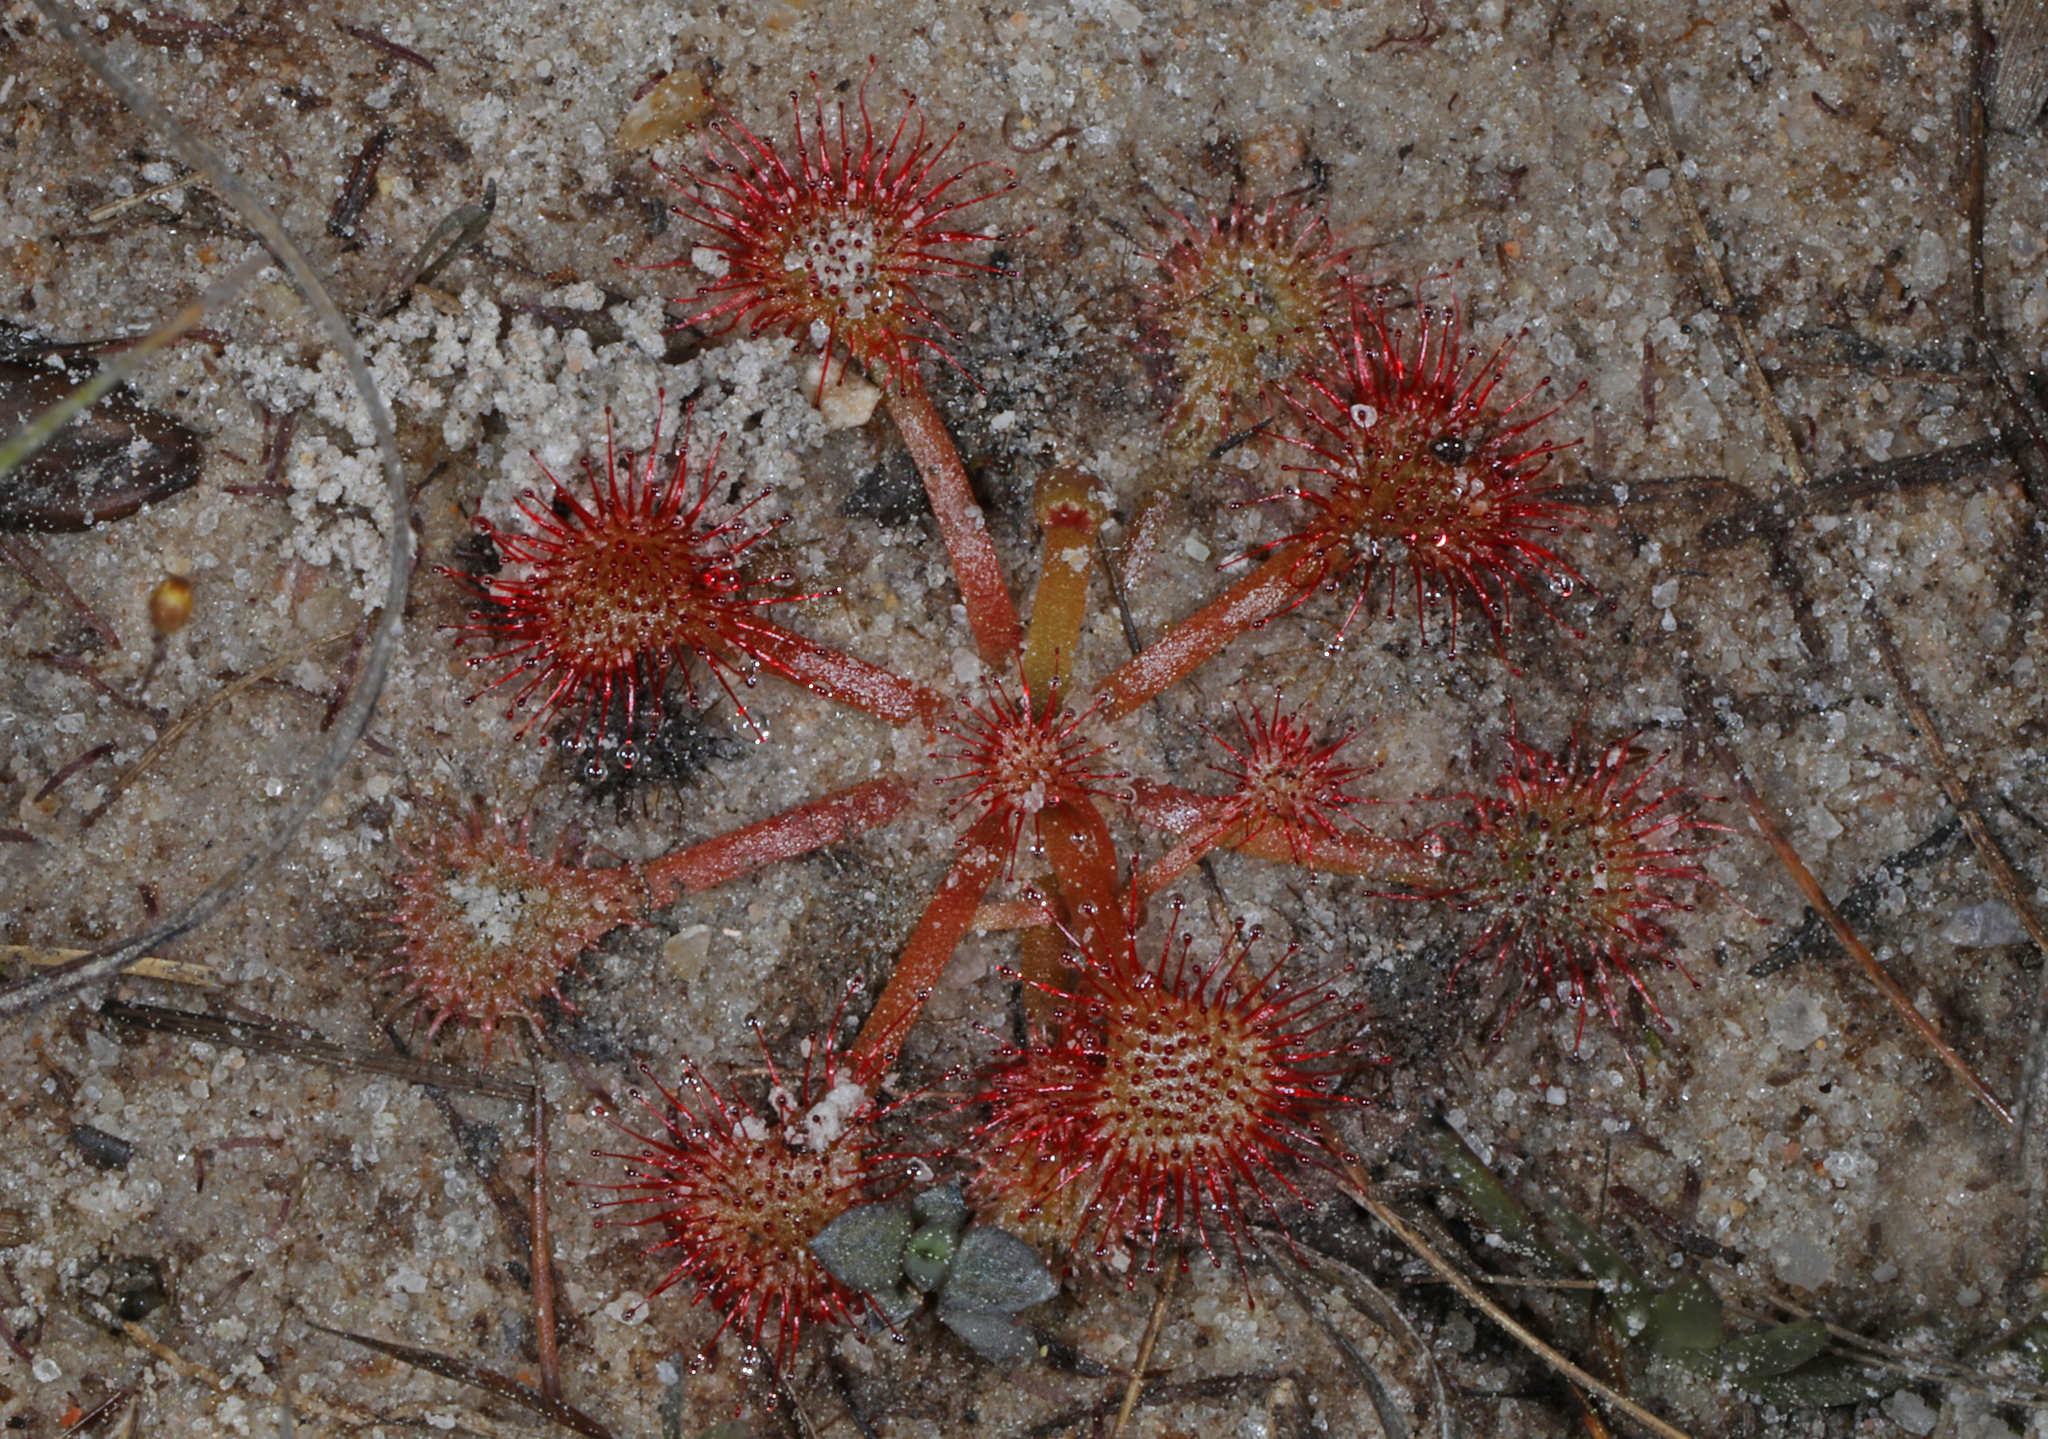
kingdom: Plantae
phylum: Tracheophyta
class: Magnoliopsida
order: Caryophyllales
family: Droseraceae
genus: Drosera
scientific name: Drosera capillaris
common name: Pink sundew
